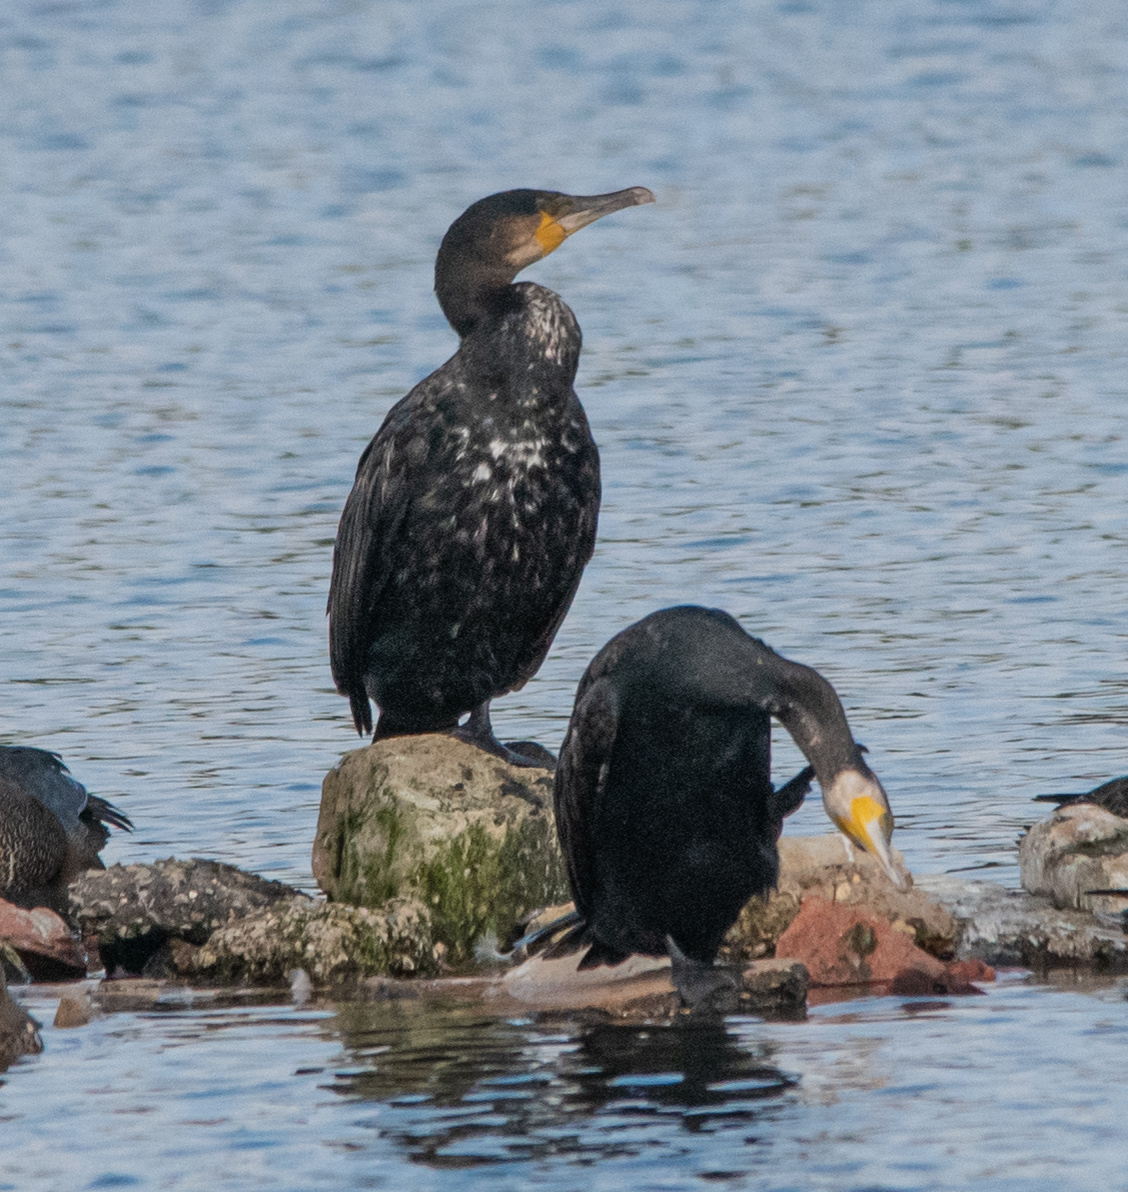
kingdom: Animalia
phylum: Chordata
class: Aves
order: Suliformes
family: Phalacrocoracidae
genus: Phalacrocorax
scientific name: Phalacrocorax carbo
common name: Great cormorant
